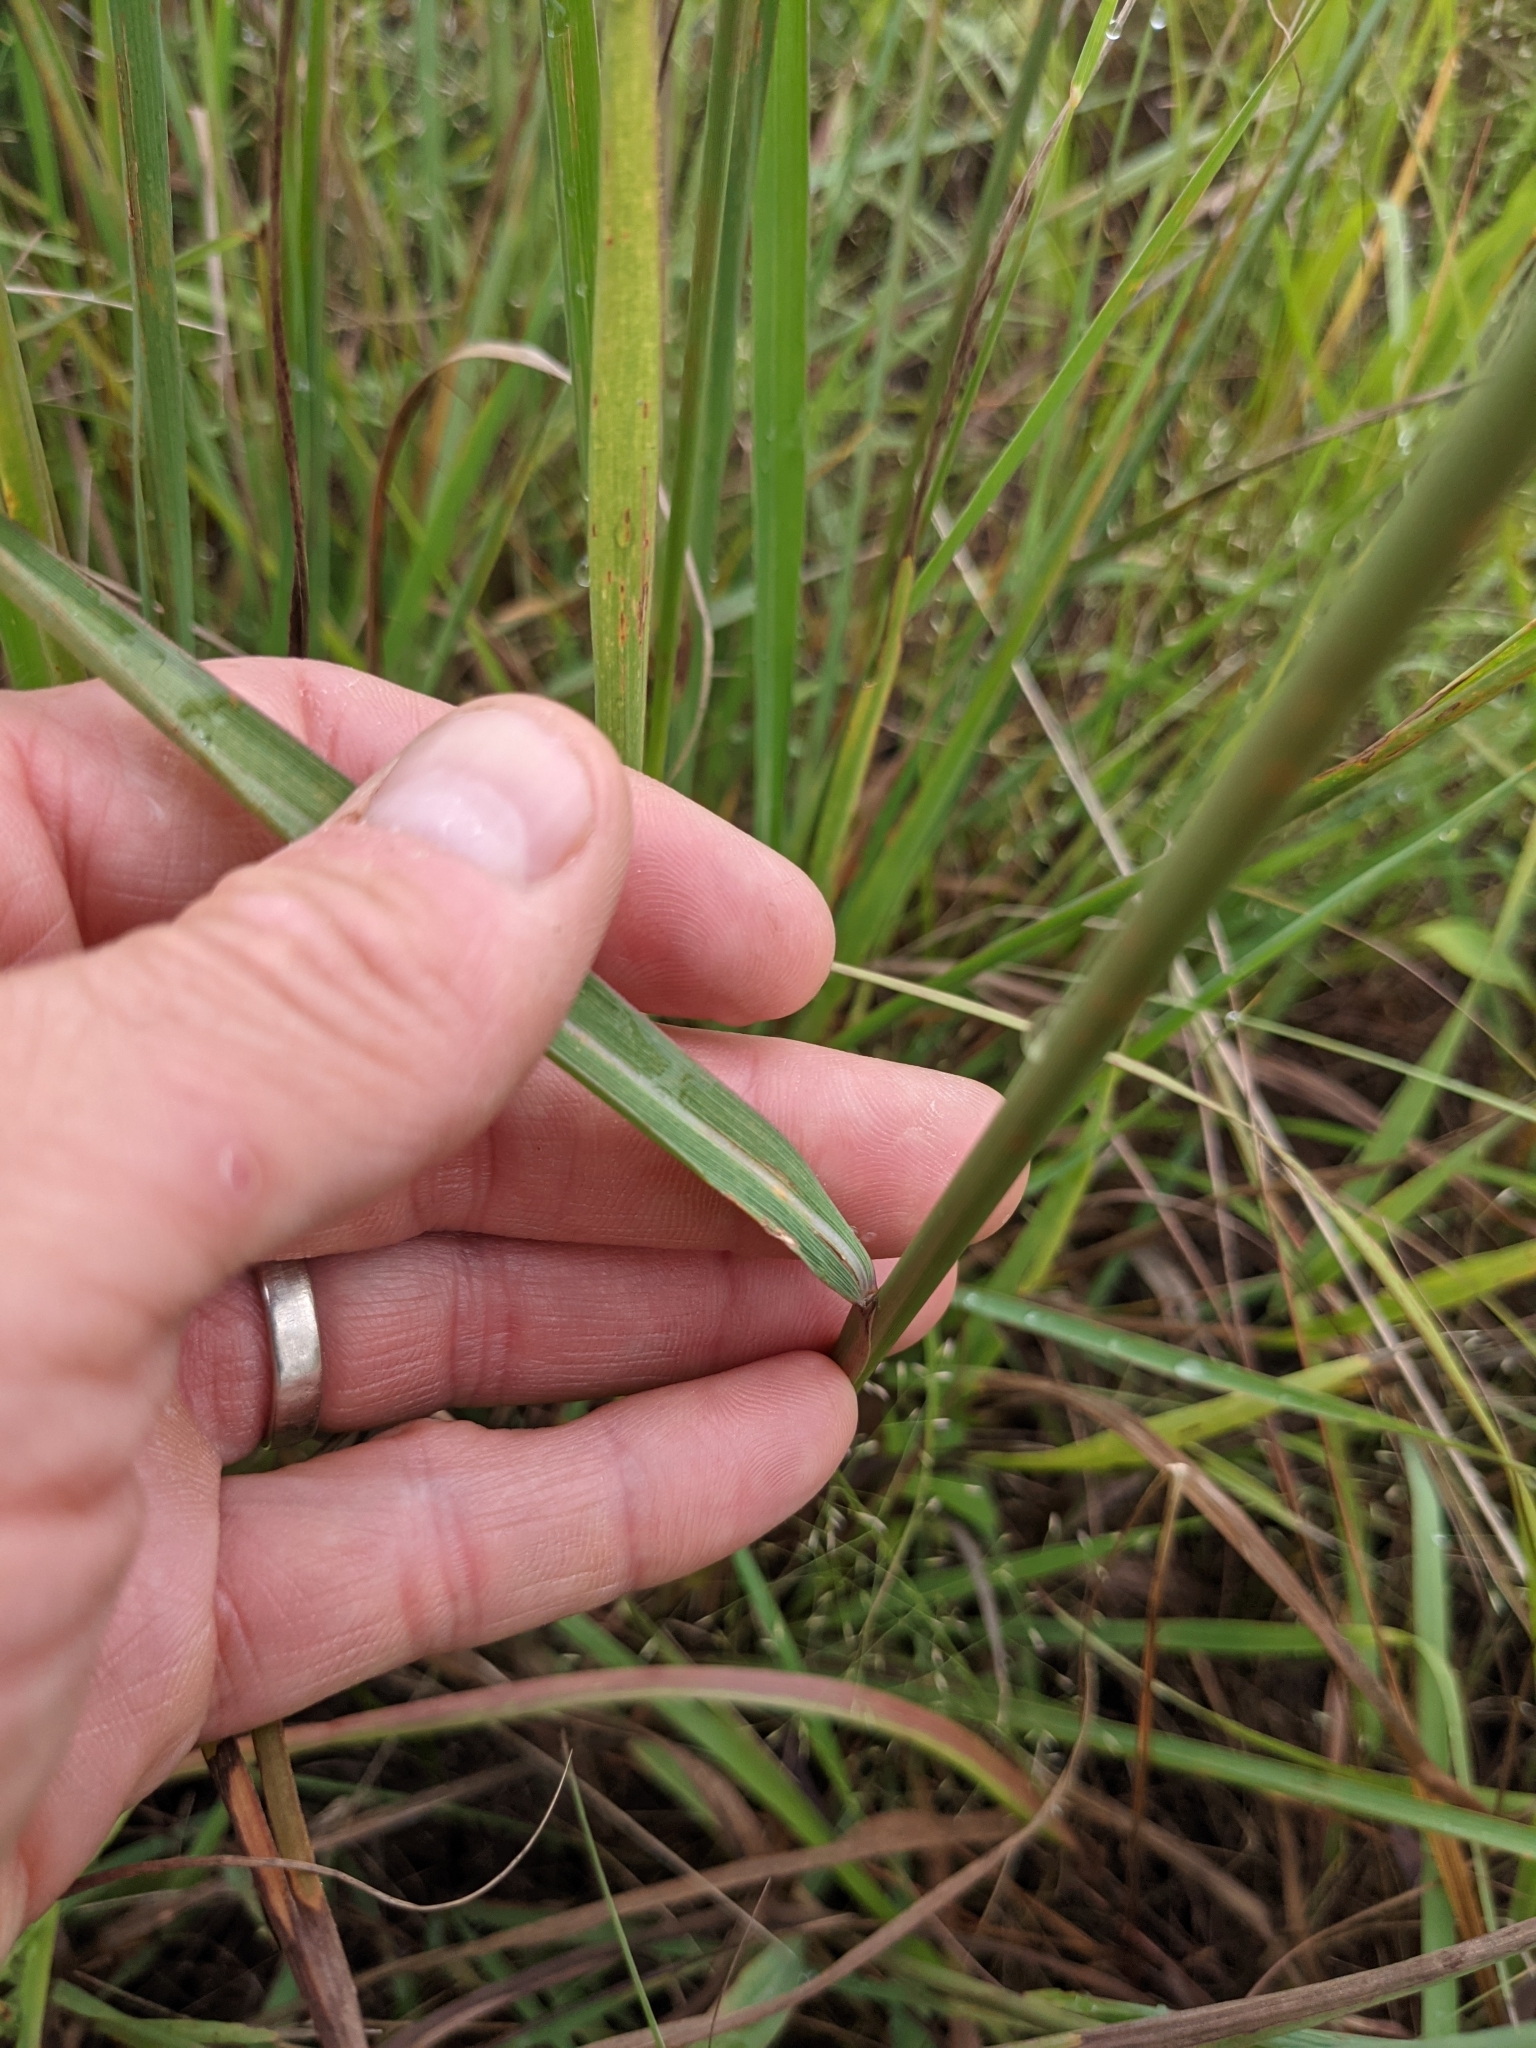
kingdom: Plantae
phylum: Tracheophyta
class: Liliopsida
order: Poales
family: Poaceae
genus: Sorghastrum
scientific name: Sorghastrum nutans
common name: Indian grass
